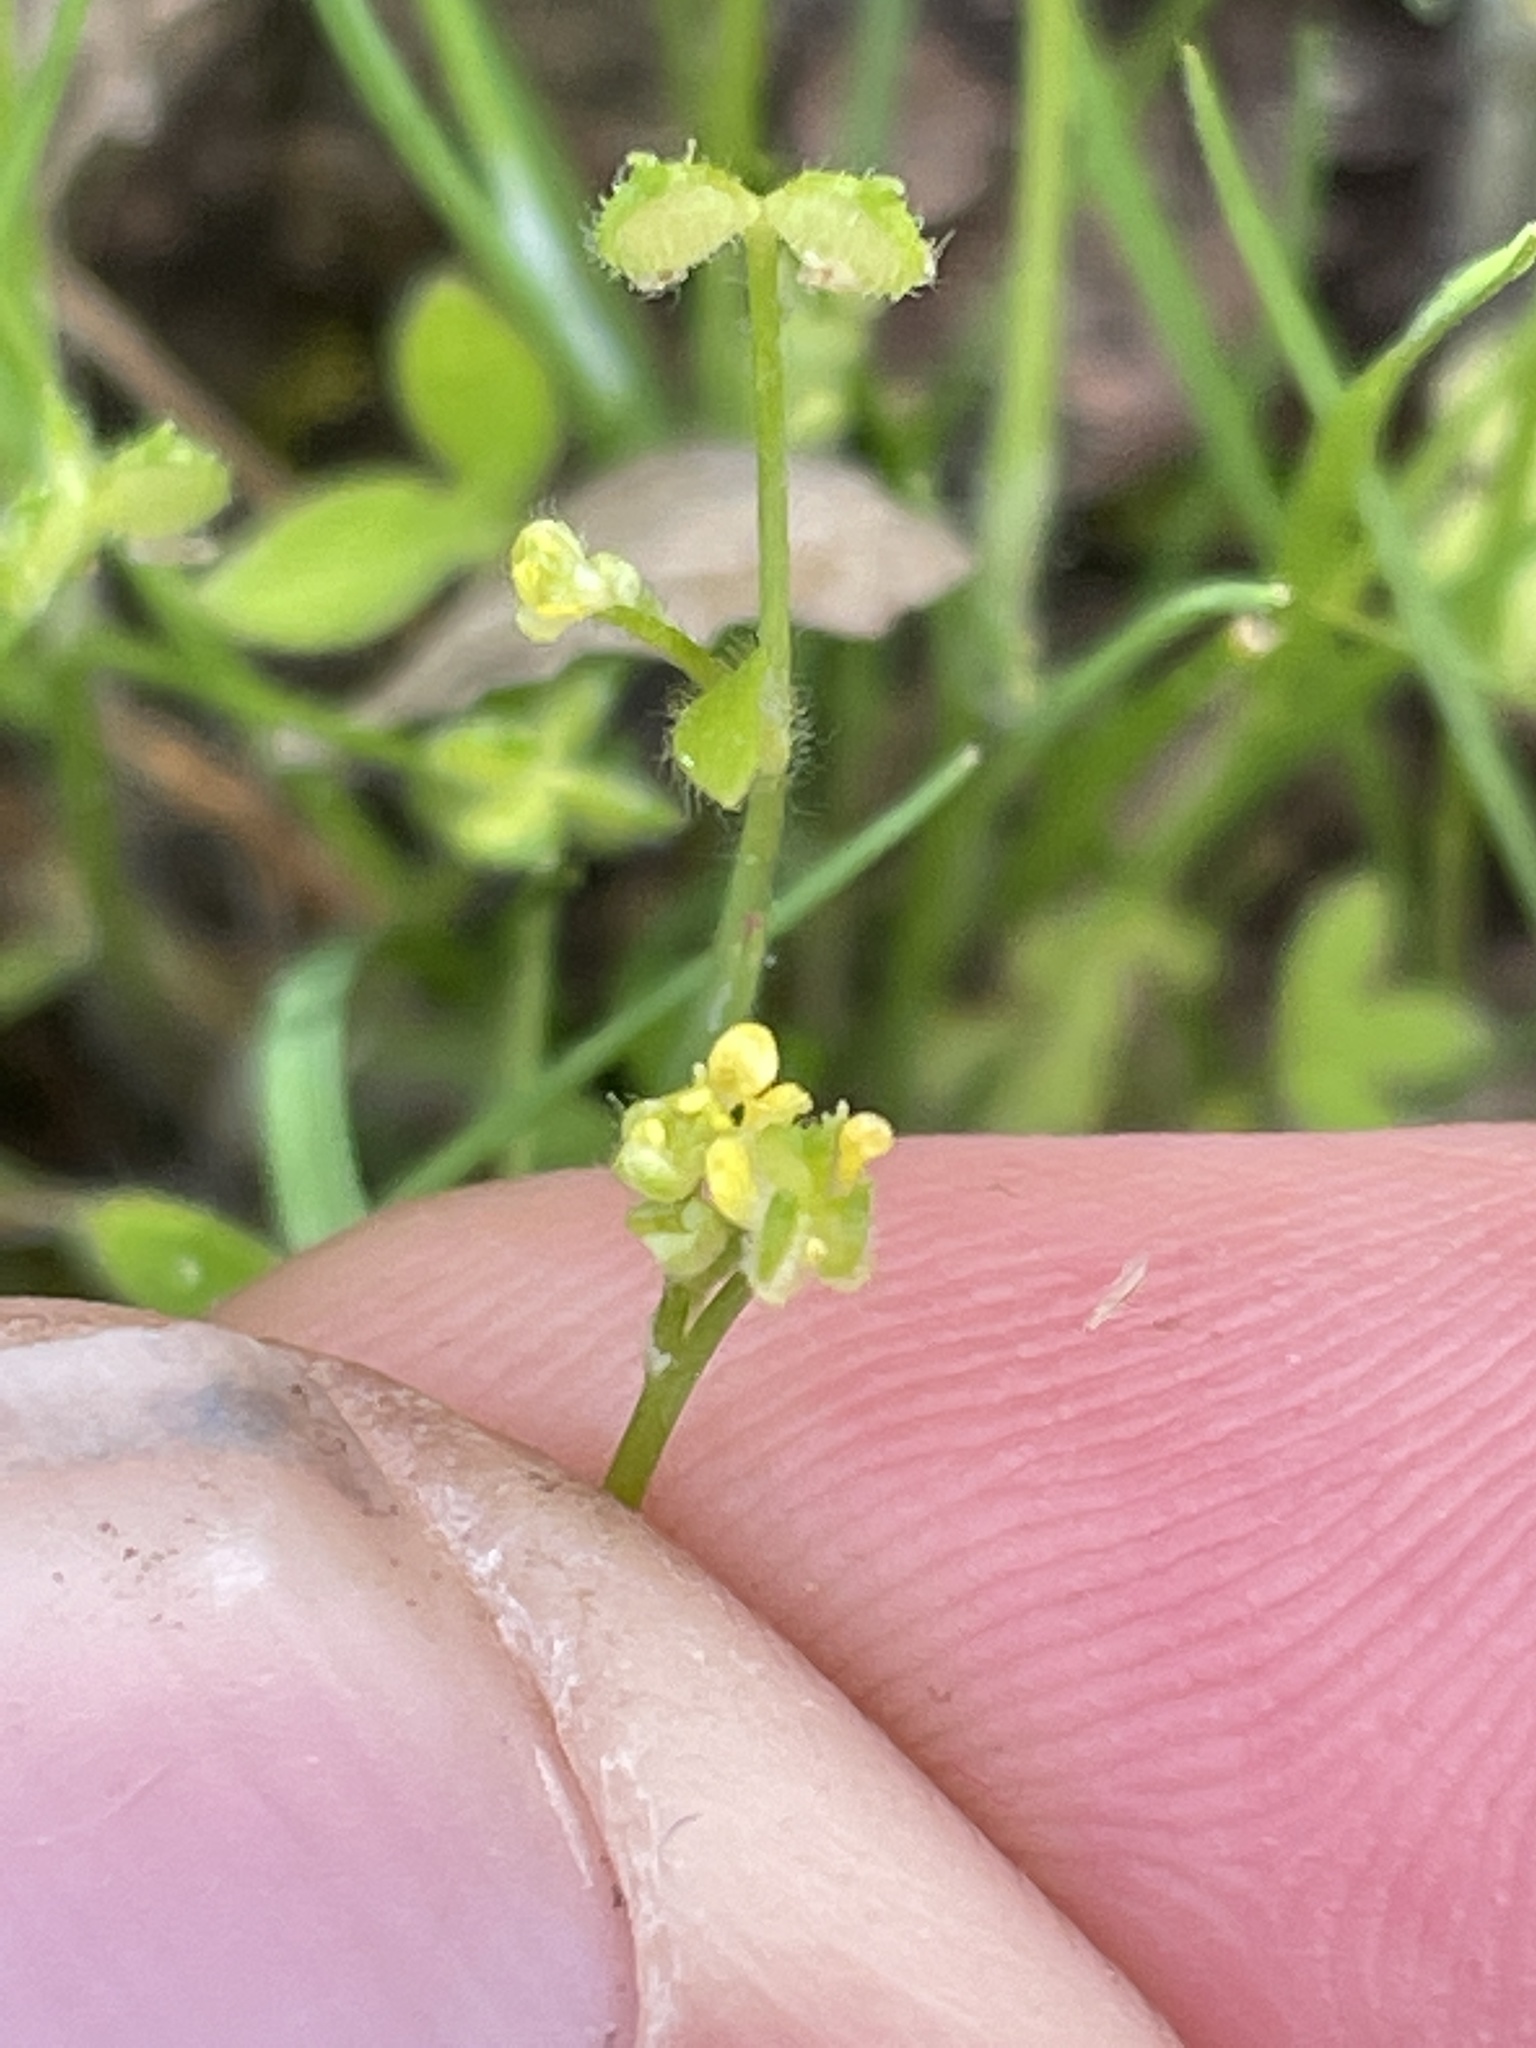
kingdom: Plantae
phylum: Tracheophyta
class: Magnoliopsida
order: Ranunculales
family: Ranunculaceae
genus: Ranunculus
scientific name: Ranunculus hebecarpus
